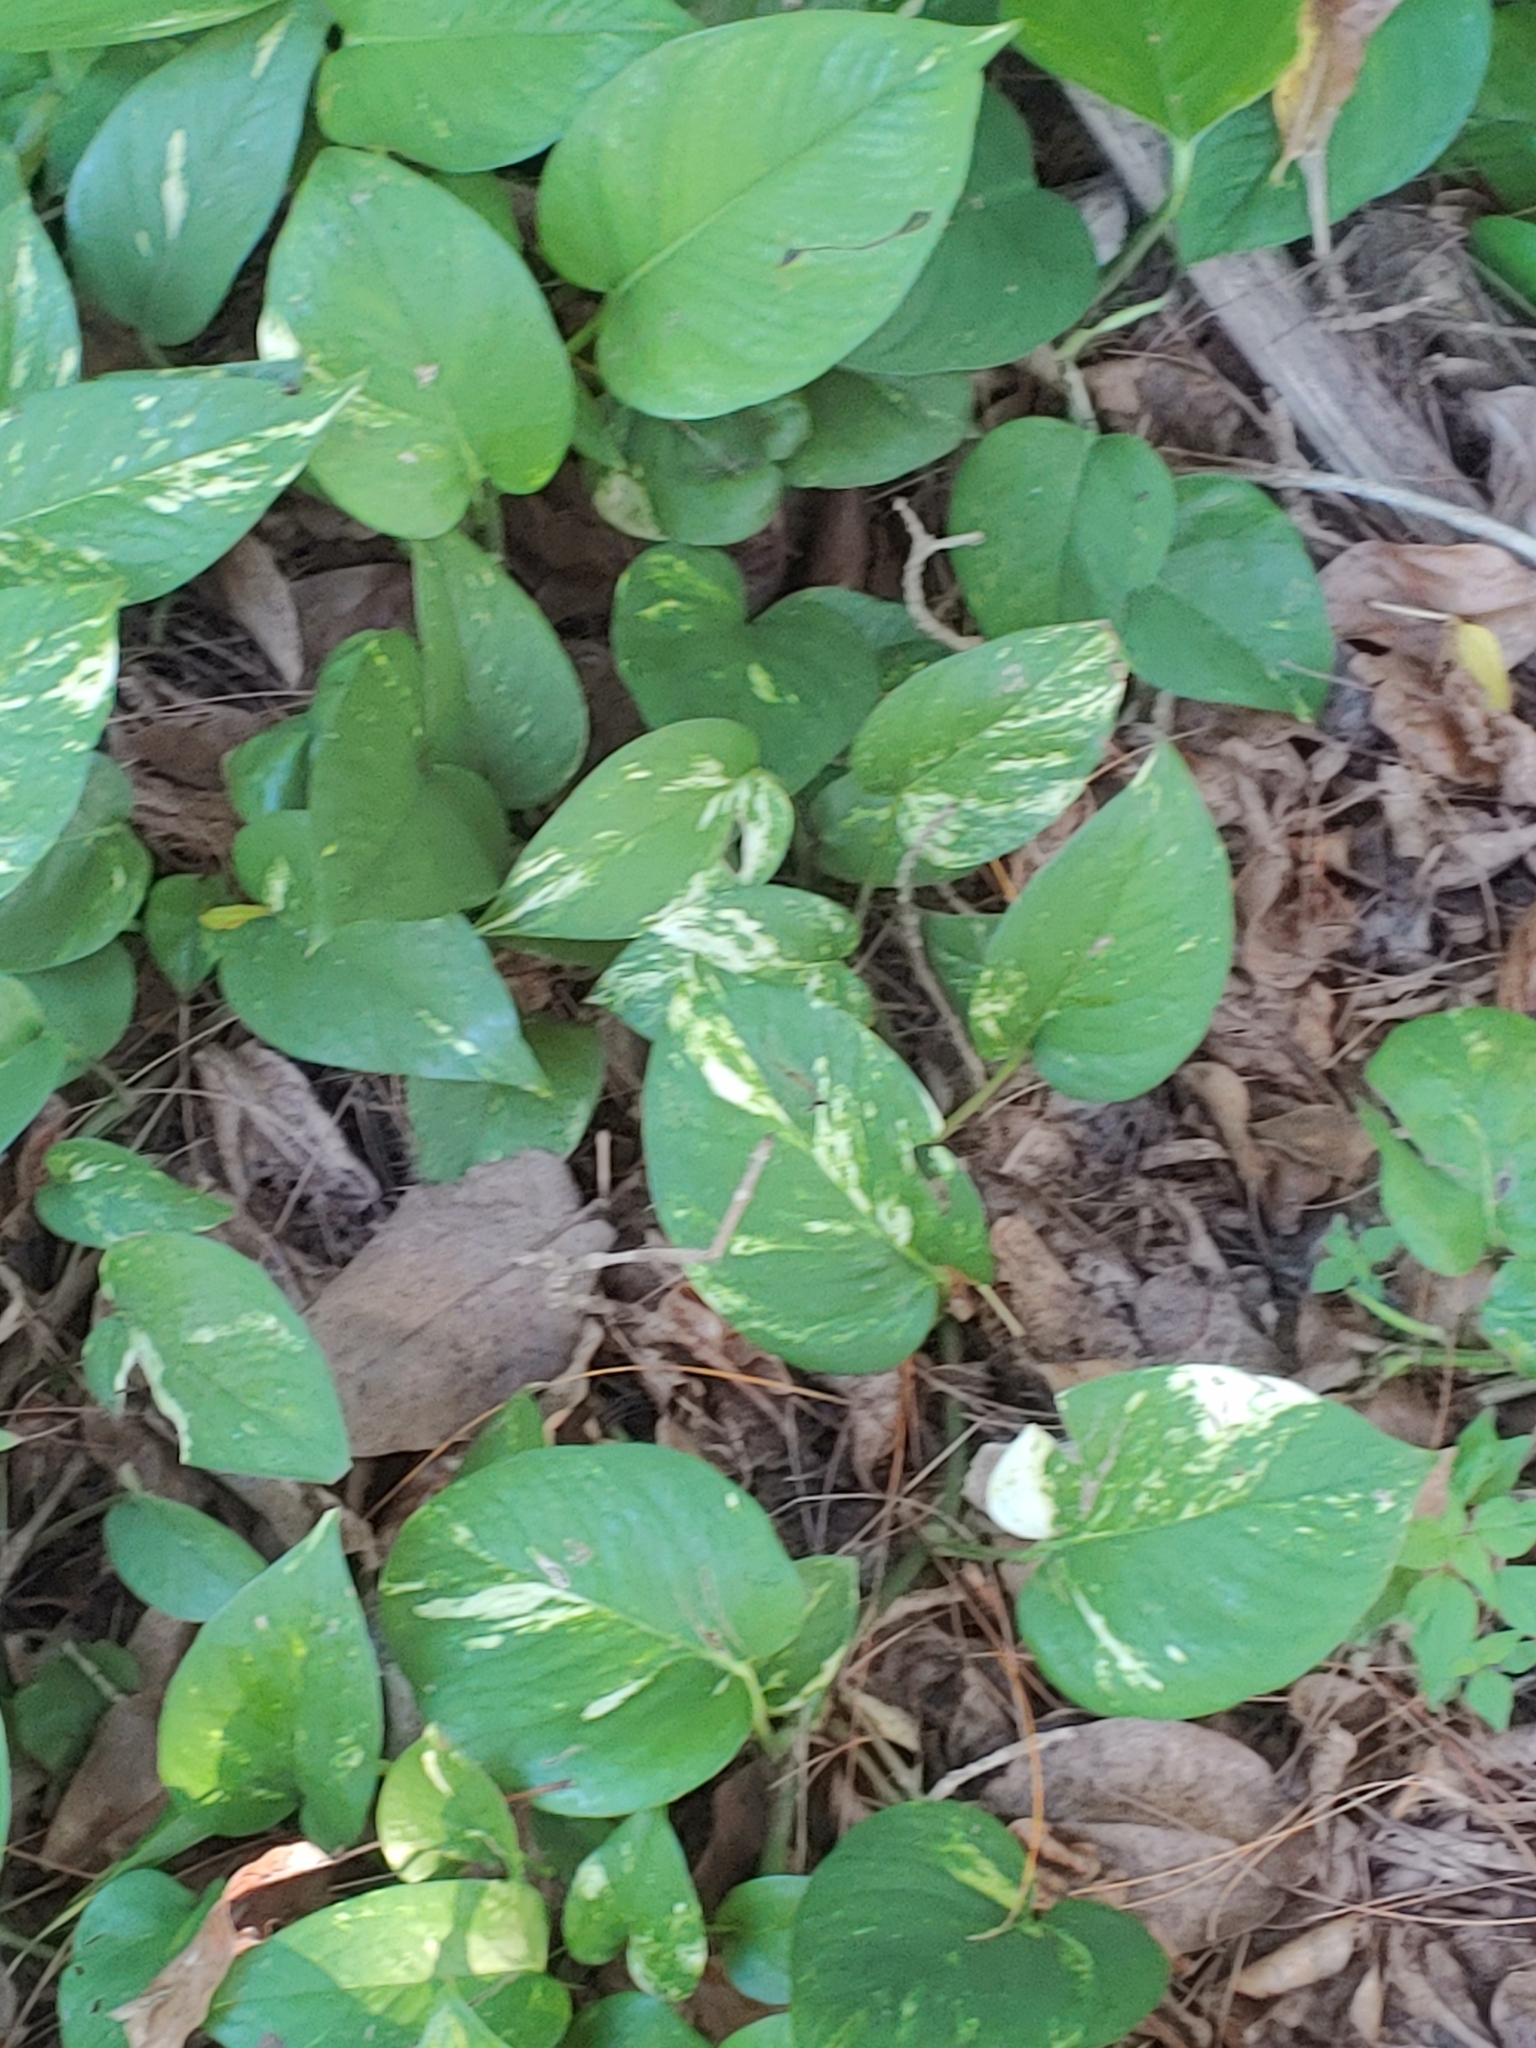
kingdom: Plantae
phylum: Tracheophyta
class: Liliopsida
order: Alismatales
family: Araceae
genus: Epipremnum
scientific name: Epipremnum aureum
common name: Golden hunter's-robe
